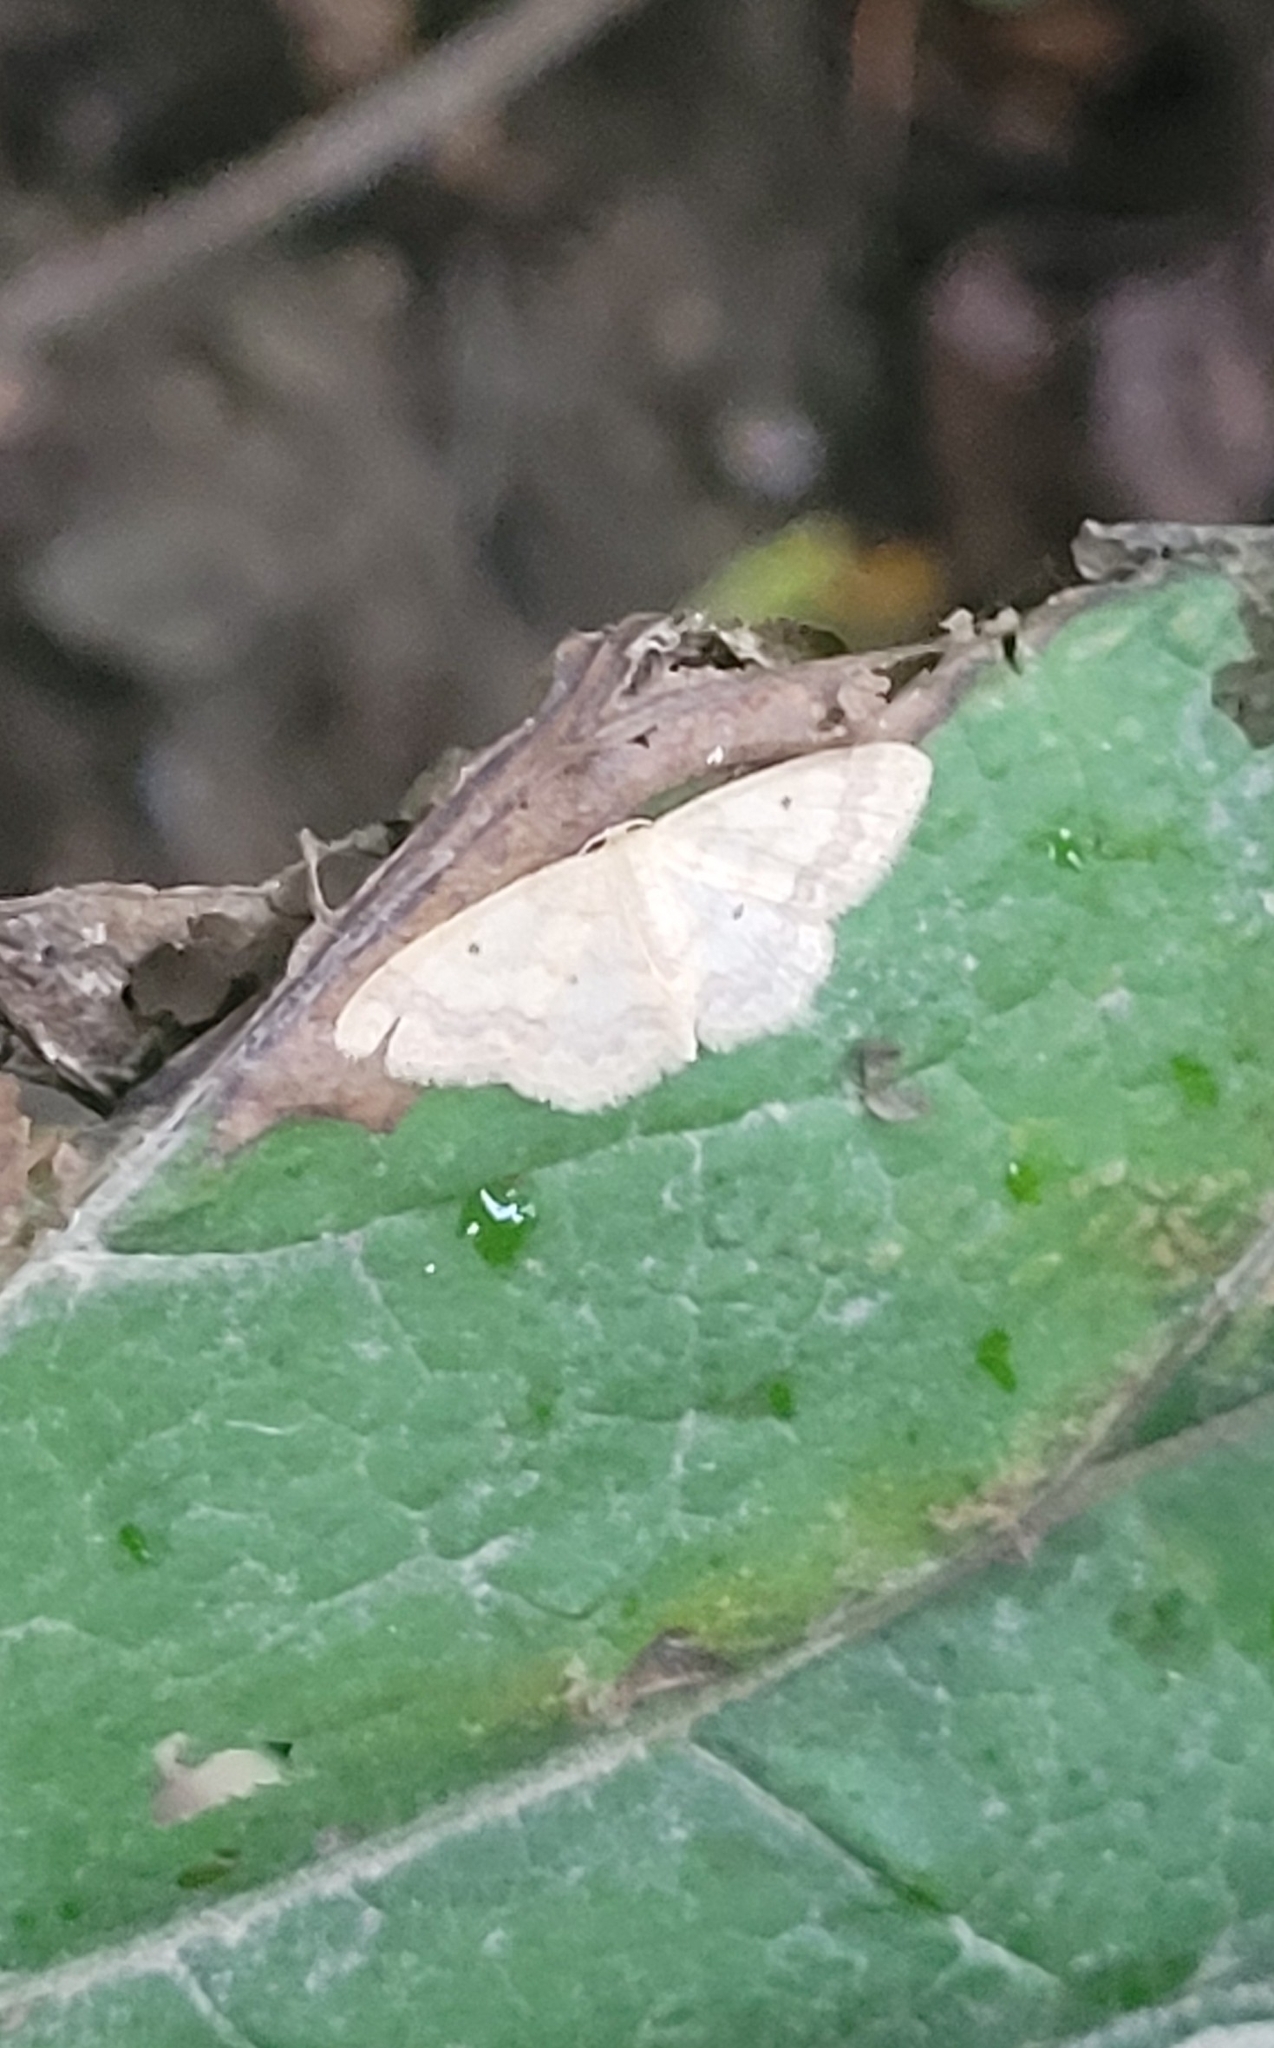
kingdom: Animalia
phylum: Arthropoda
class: Insecta
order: Lepidoptera
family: Geometridae
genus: Idaea
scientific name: Idaea biselata
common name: Small fan-footed wave
